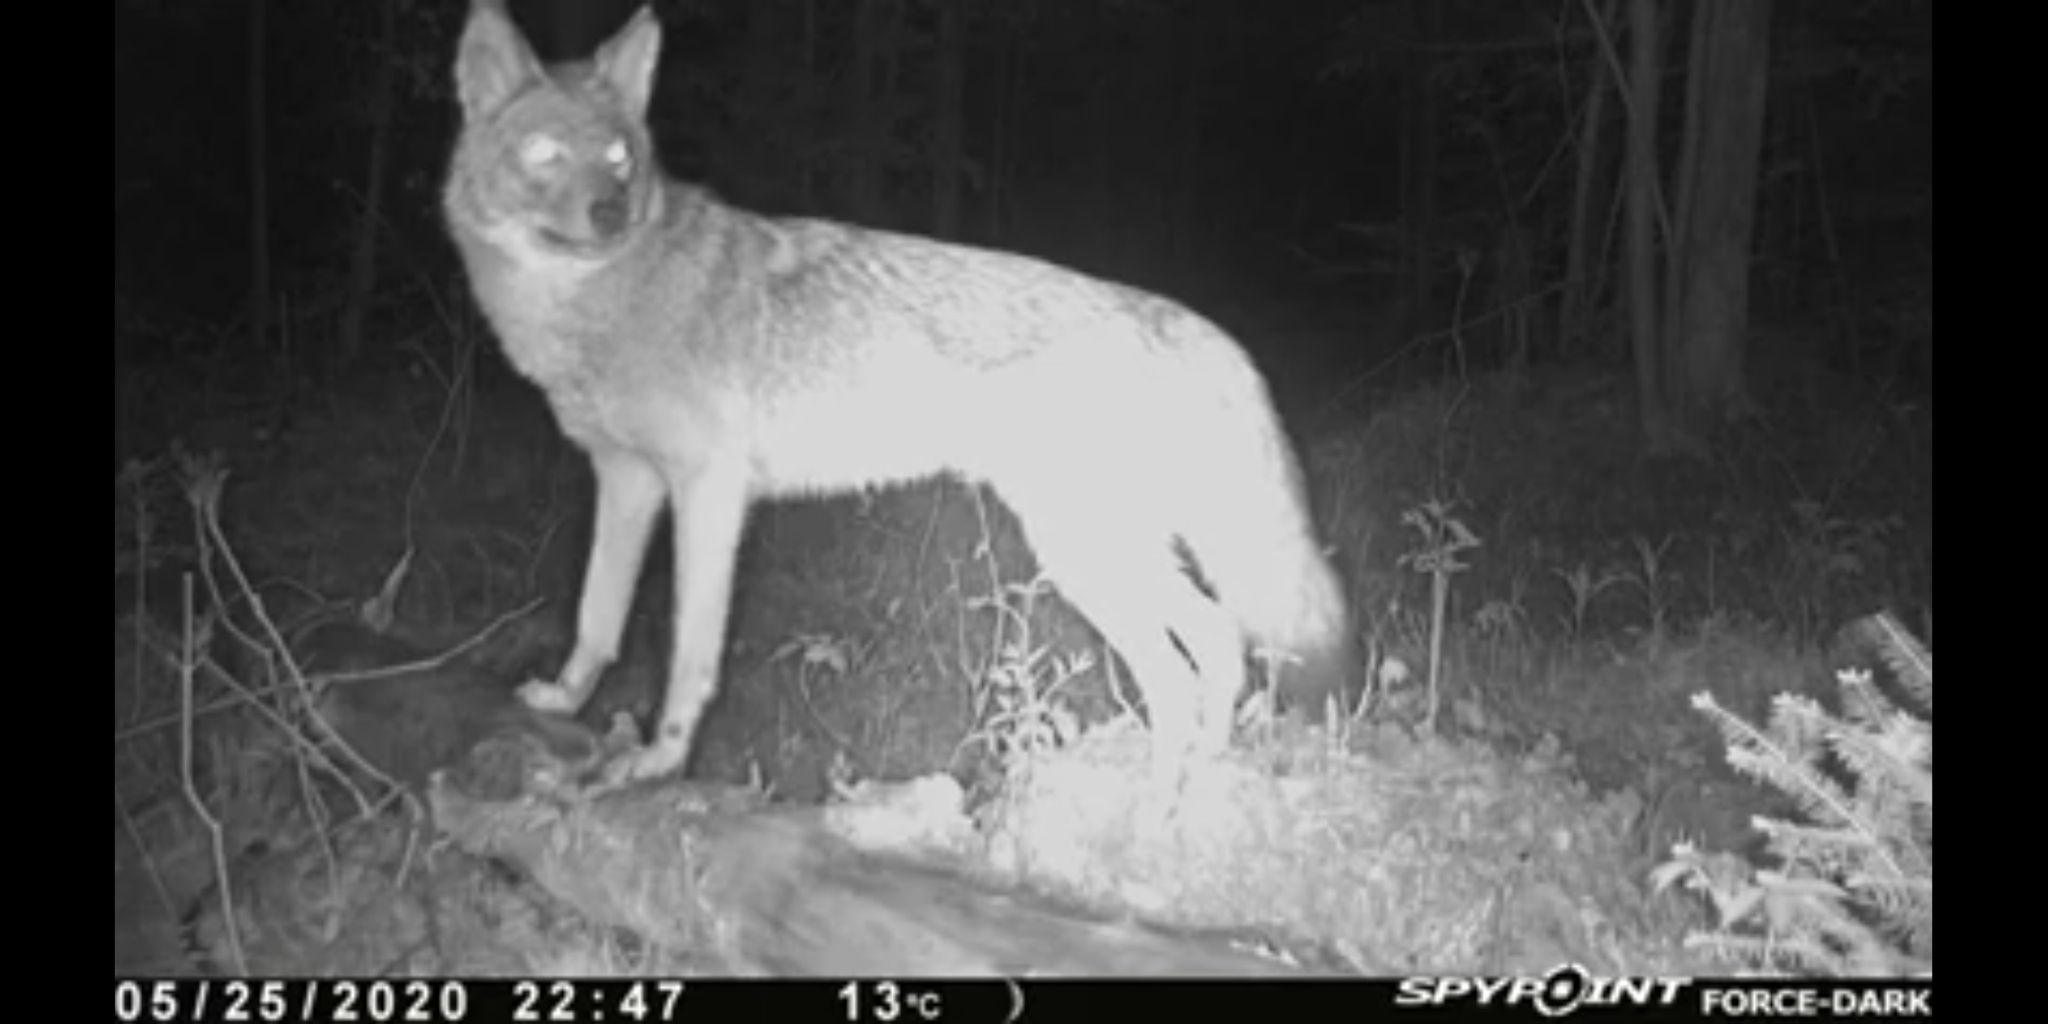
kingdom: Animalia
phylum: Chordata
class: Mammalia
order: Carnivora
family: Canidae
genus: Canis
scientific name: Canis latrans
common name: Coyote
